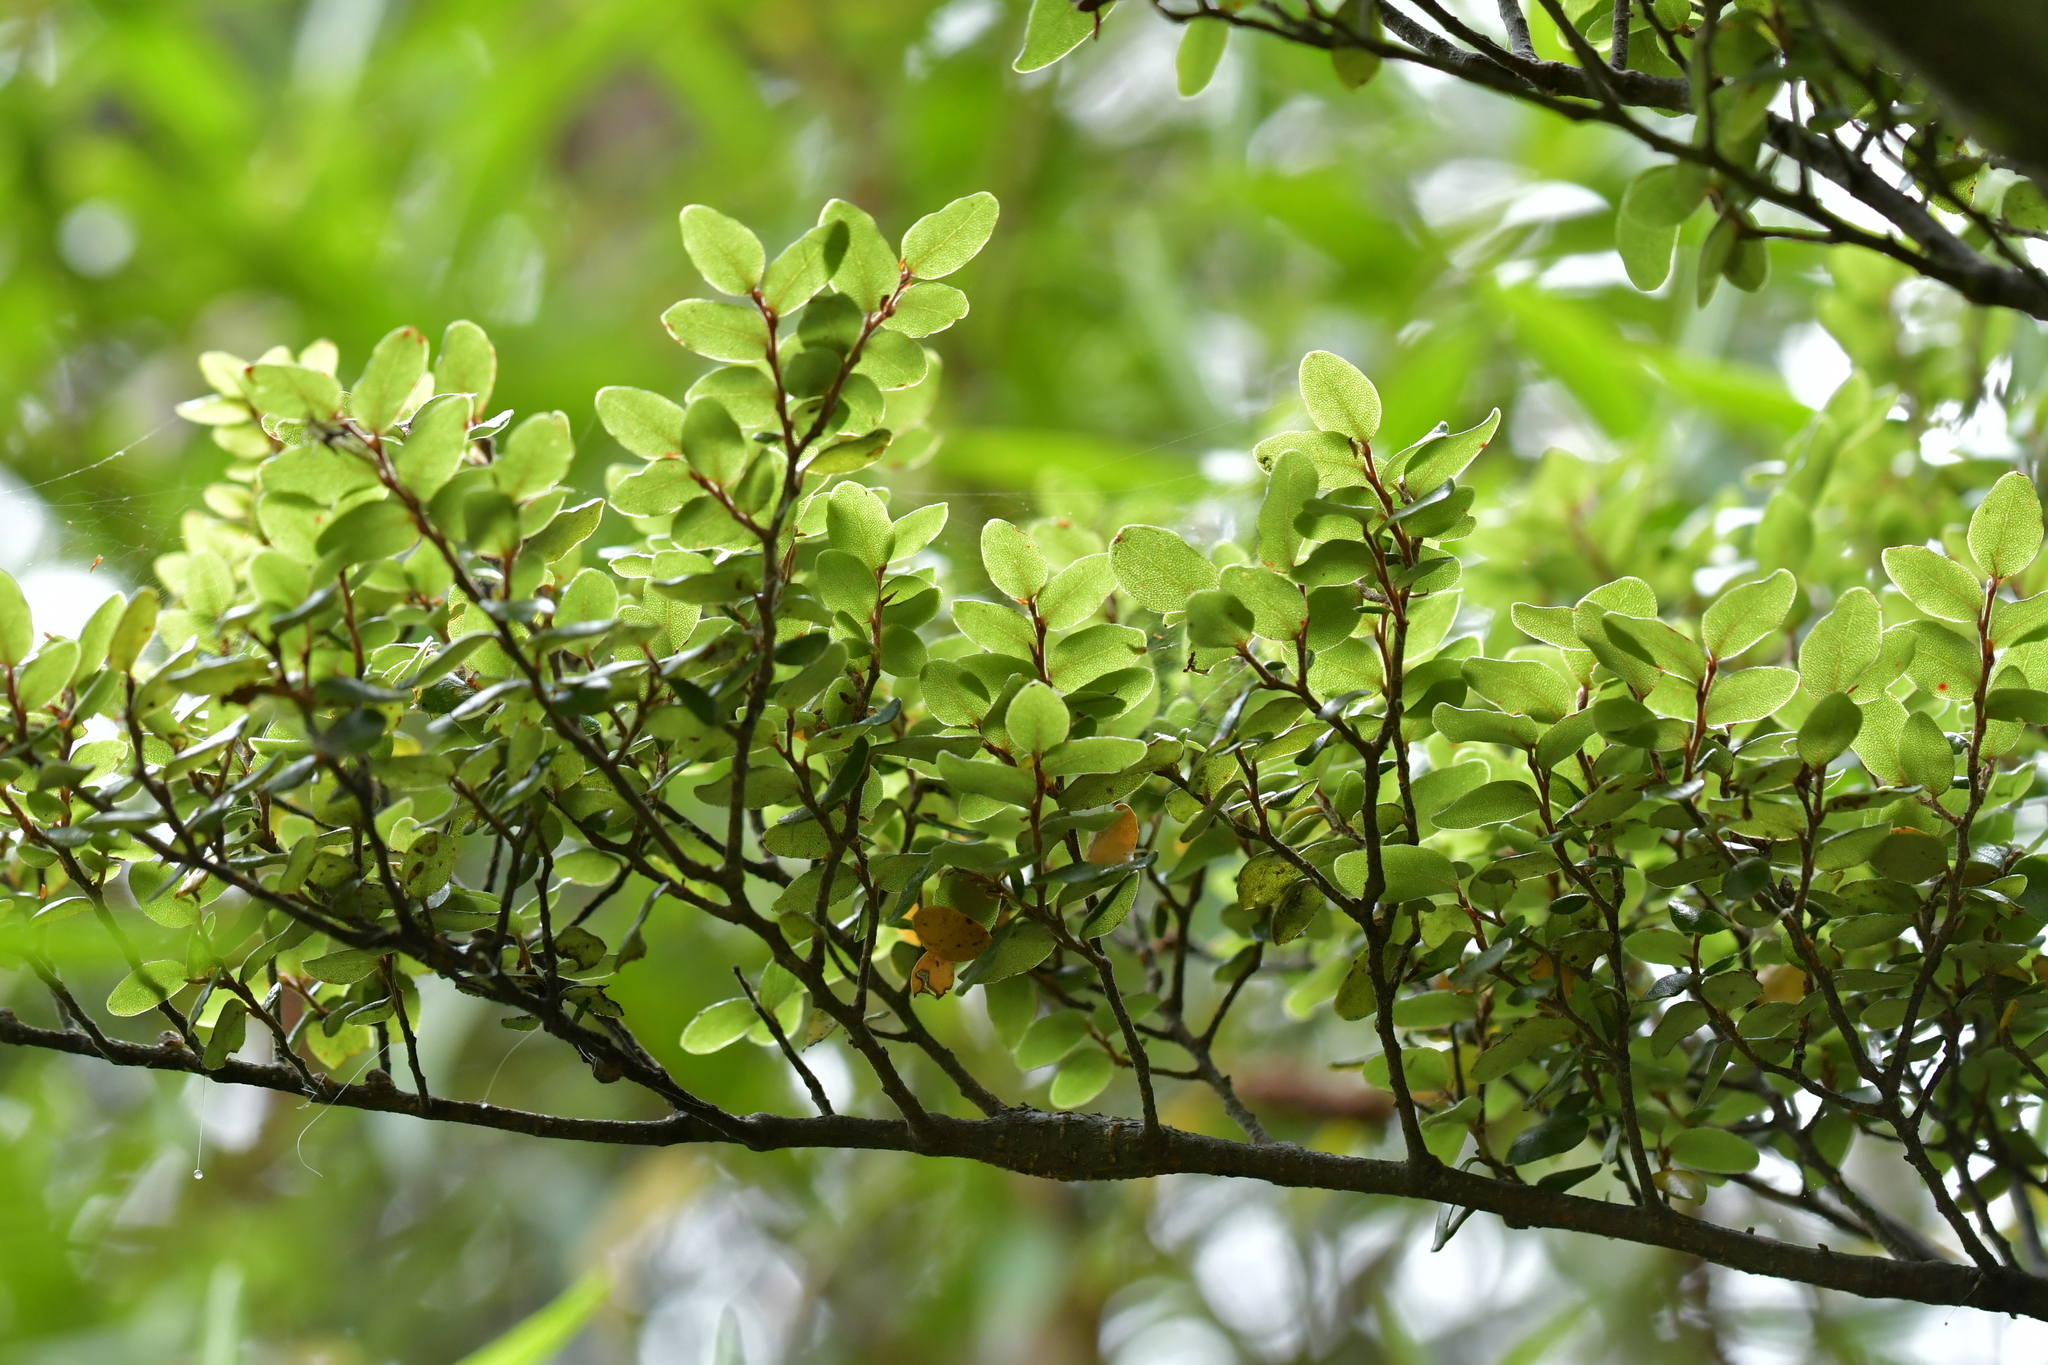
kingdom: Plantae
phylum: Tracheophyta
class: Magnoliopsida
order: Fagales
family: Nothofagaceae
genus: Nothofagus
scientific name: Nothofagus cliffortioides
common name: Mountain beech
